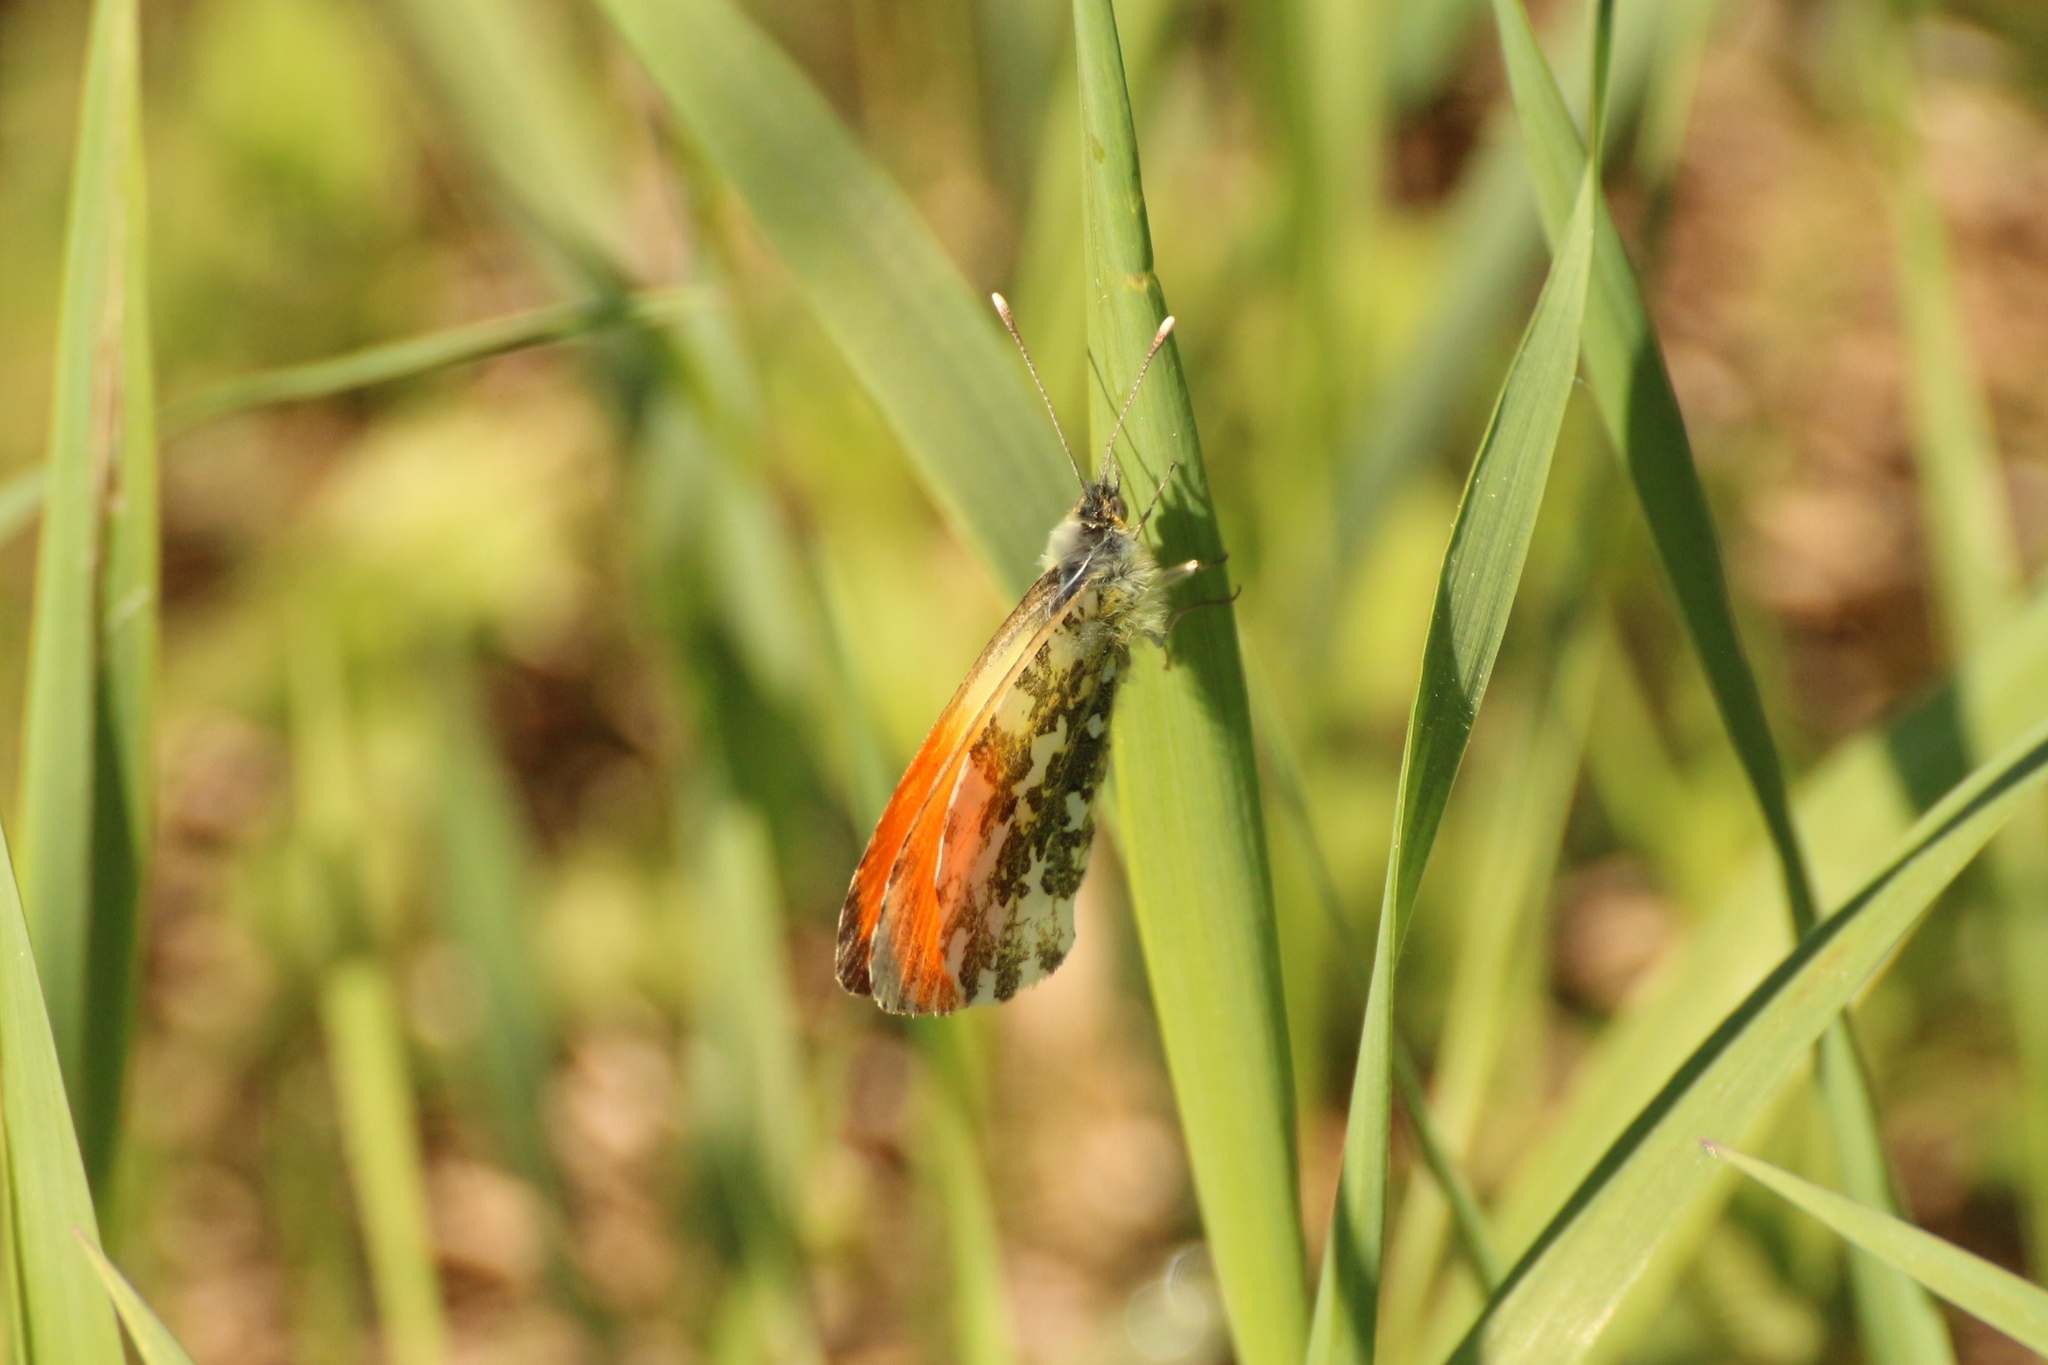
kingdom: Animalia
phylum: Arthropoda
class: Insecta
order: Lepidoptera
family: Pieridae
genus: Anthocharis
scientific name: Anthocharis cardamines
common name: Orange-tip
